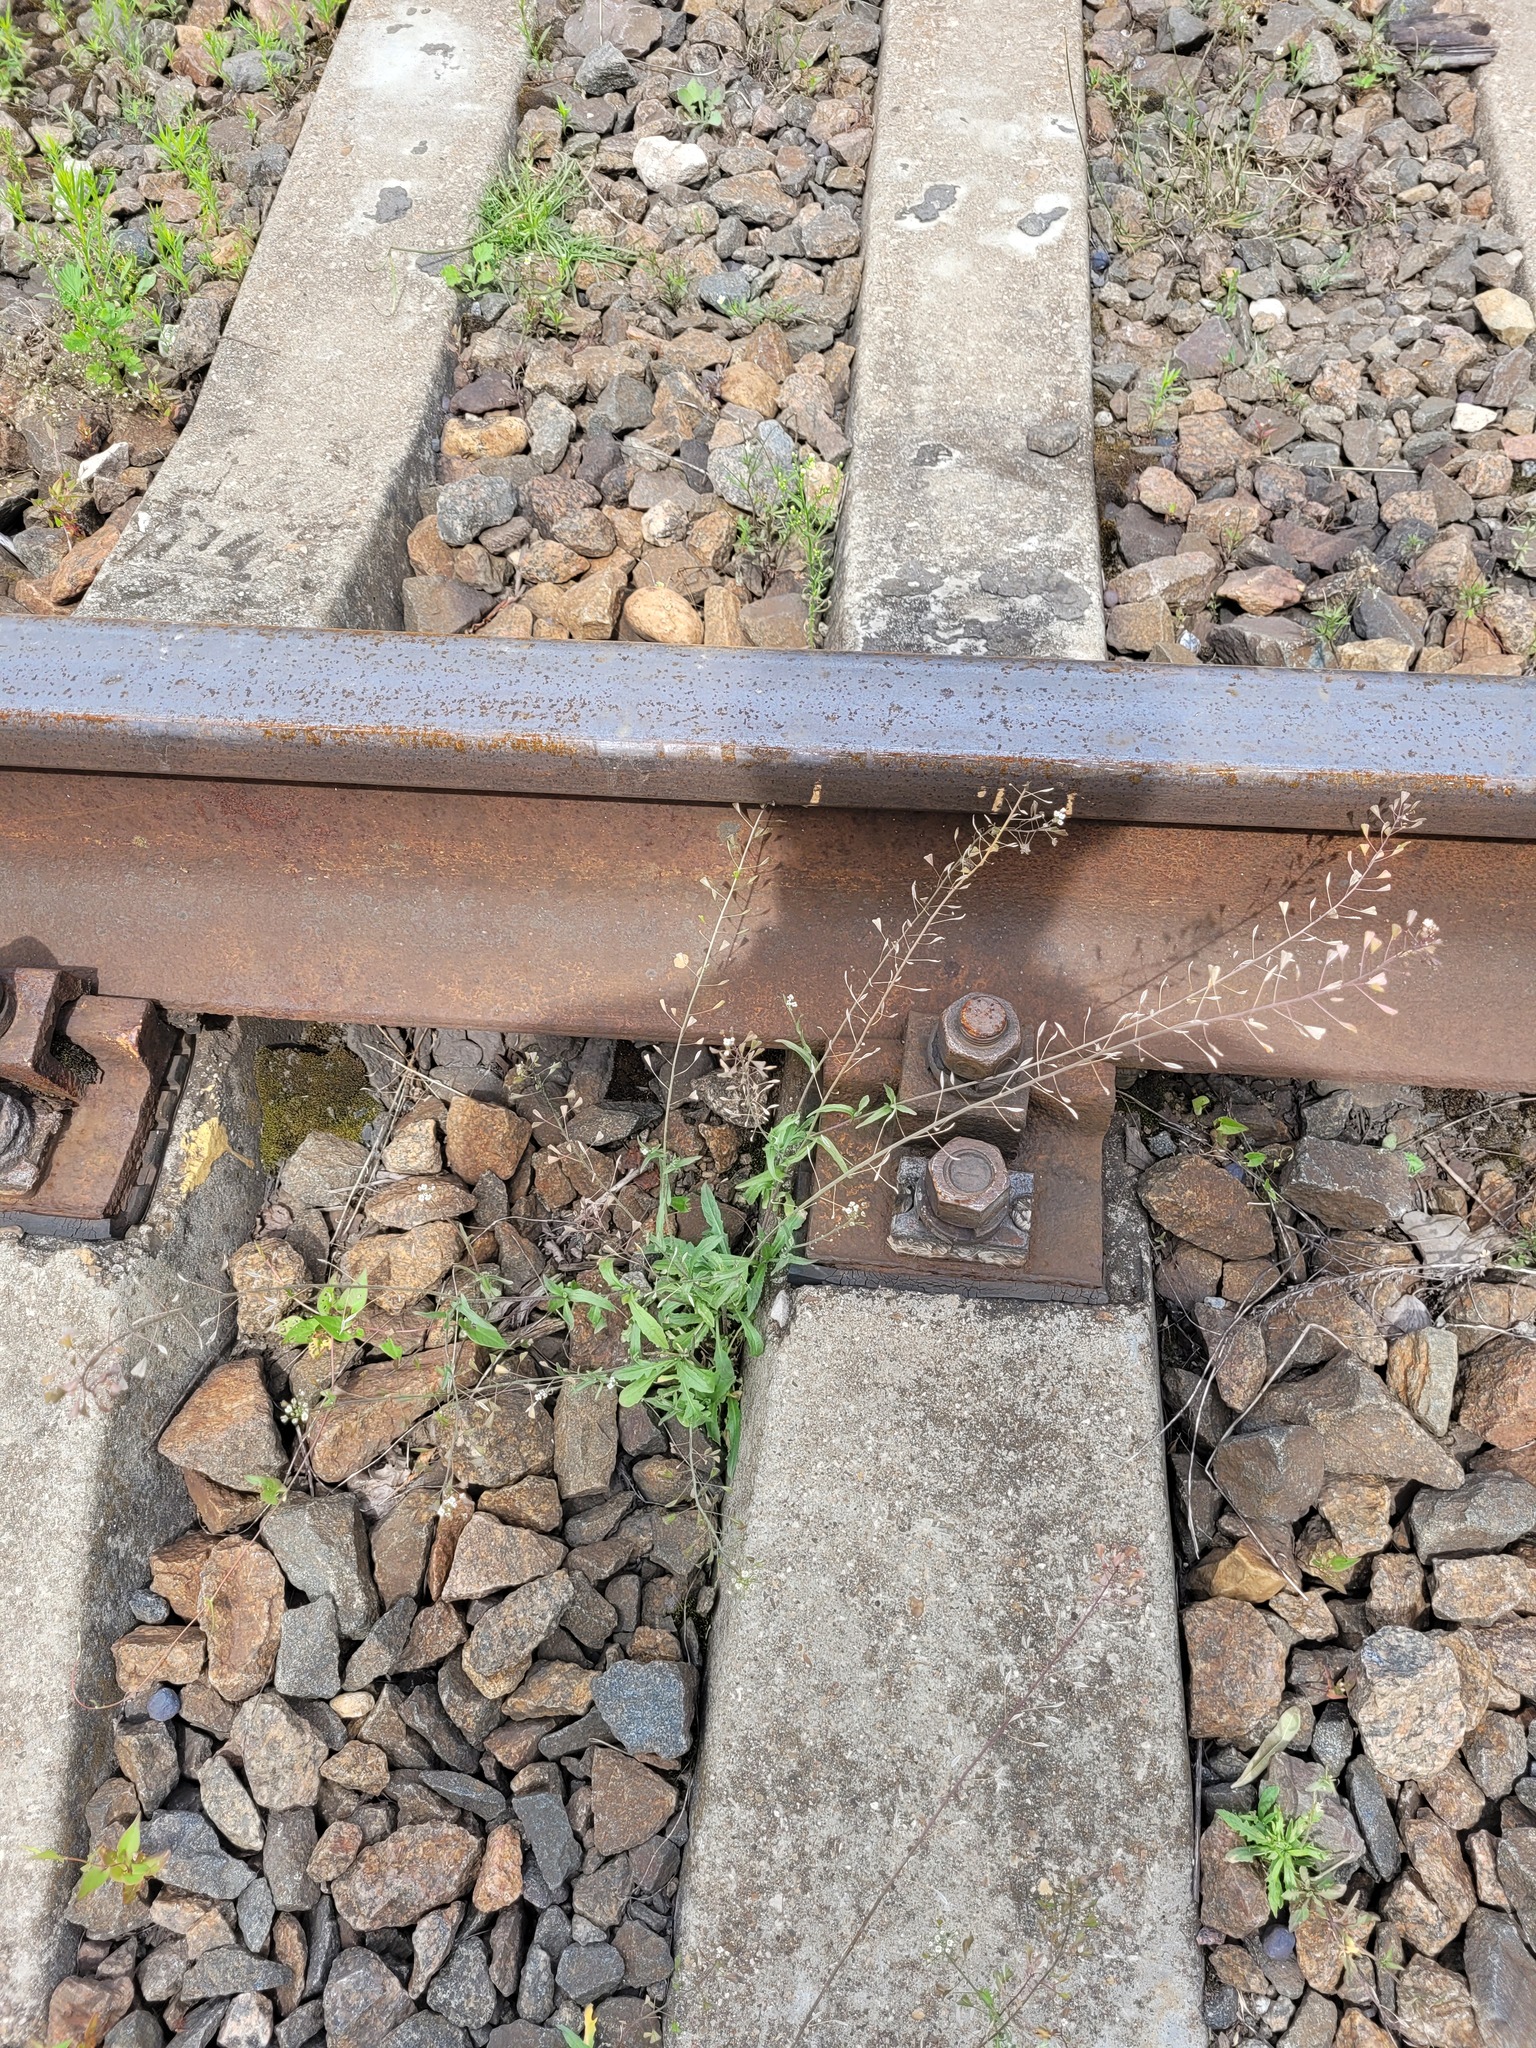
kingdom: Plantae
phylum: Tracheophyta
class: Magnoliopsida
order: Brassicales
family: Brassicaceae
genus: Capsella
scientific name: Capsella bursa-pastoris
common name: Shepherd's purse
